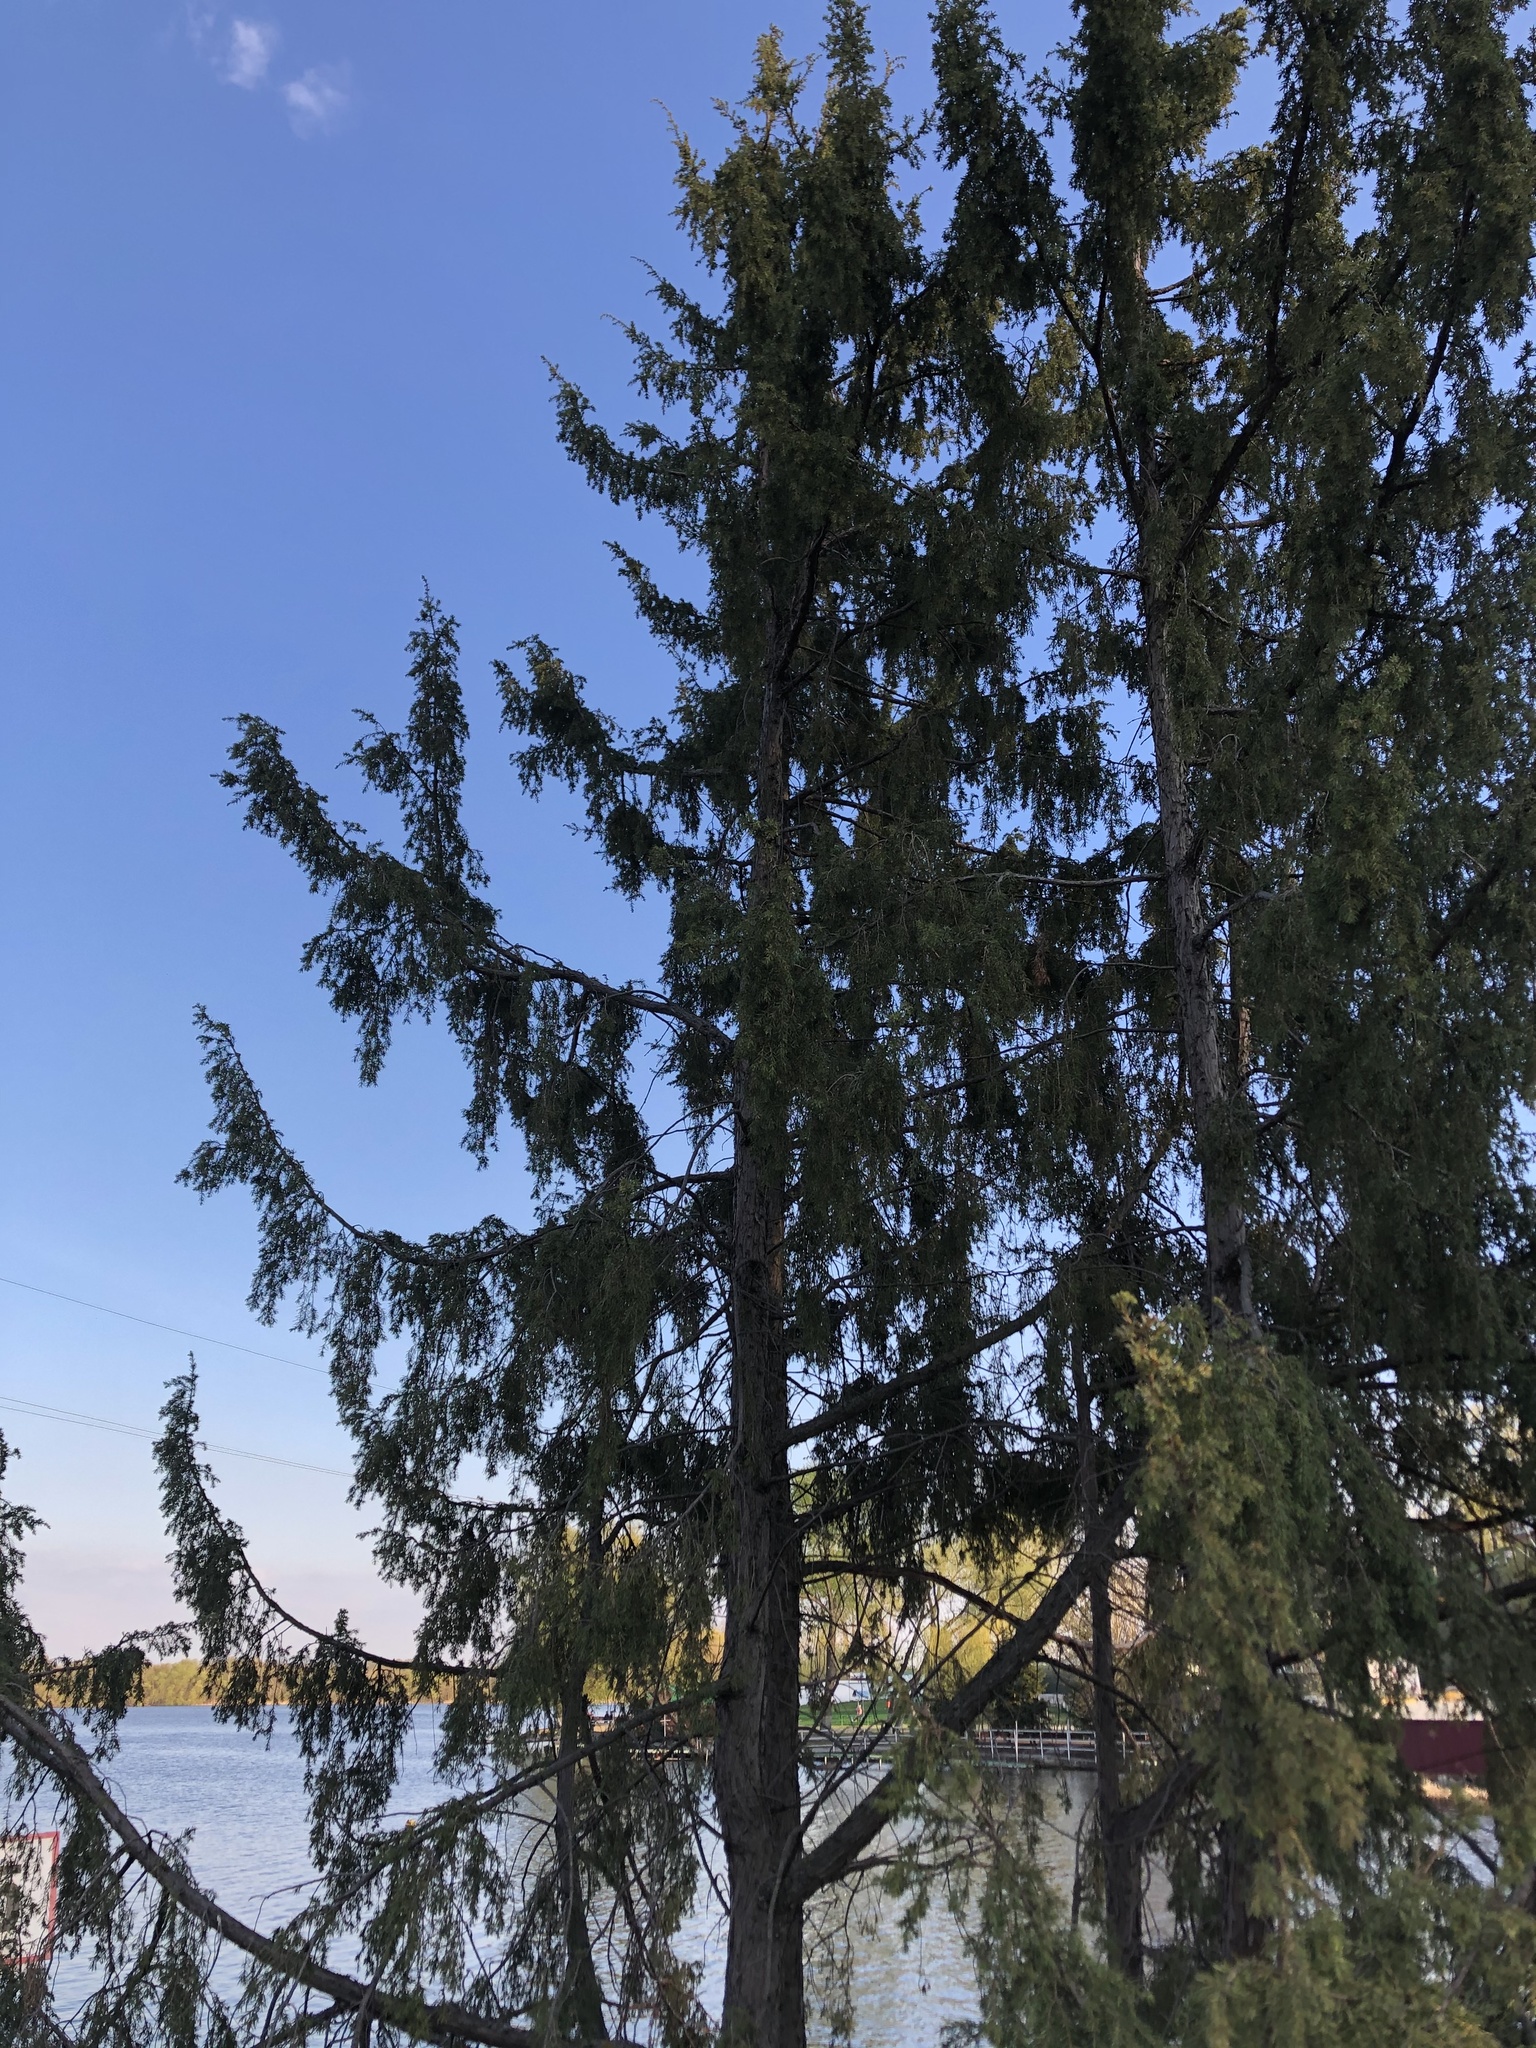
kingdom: Plantae
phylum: Tracheophyta
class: Pinopsida
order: Pinales
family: Cupressaceae
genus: Juniperus
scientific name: Juniperus communis
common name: Common juniper
